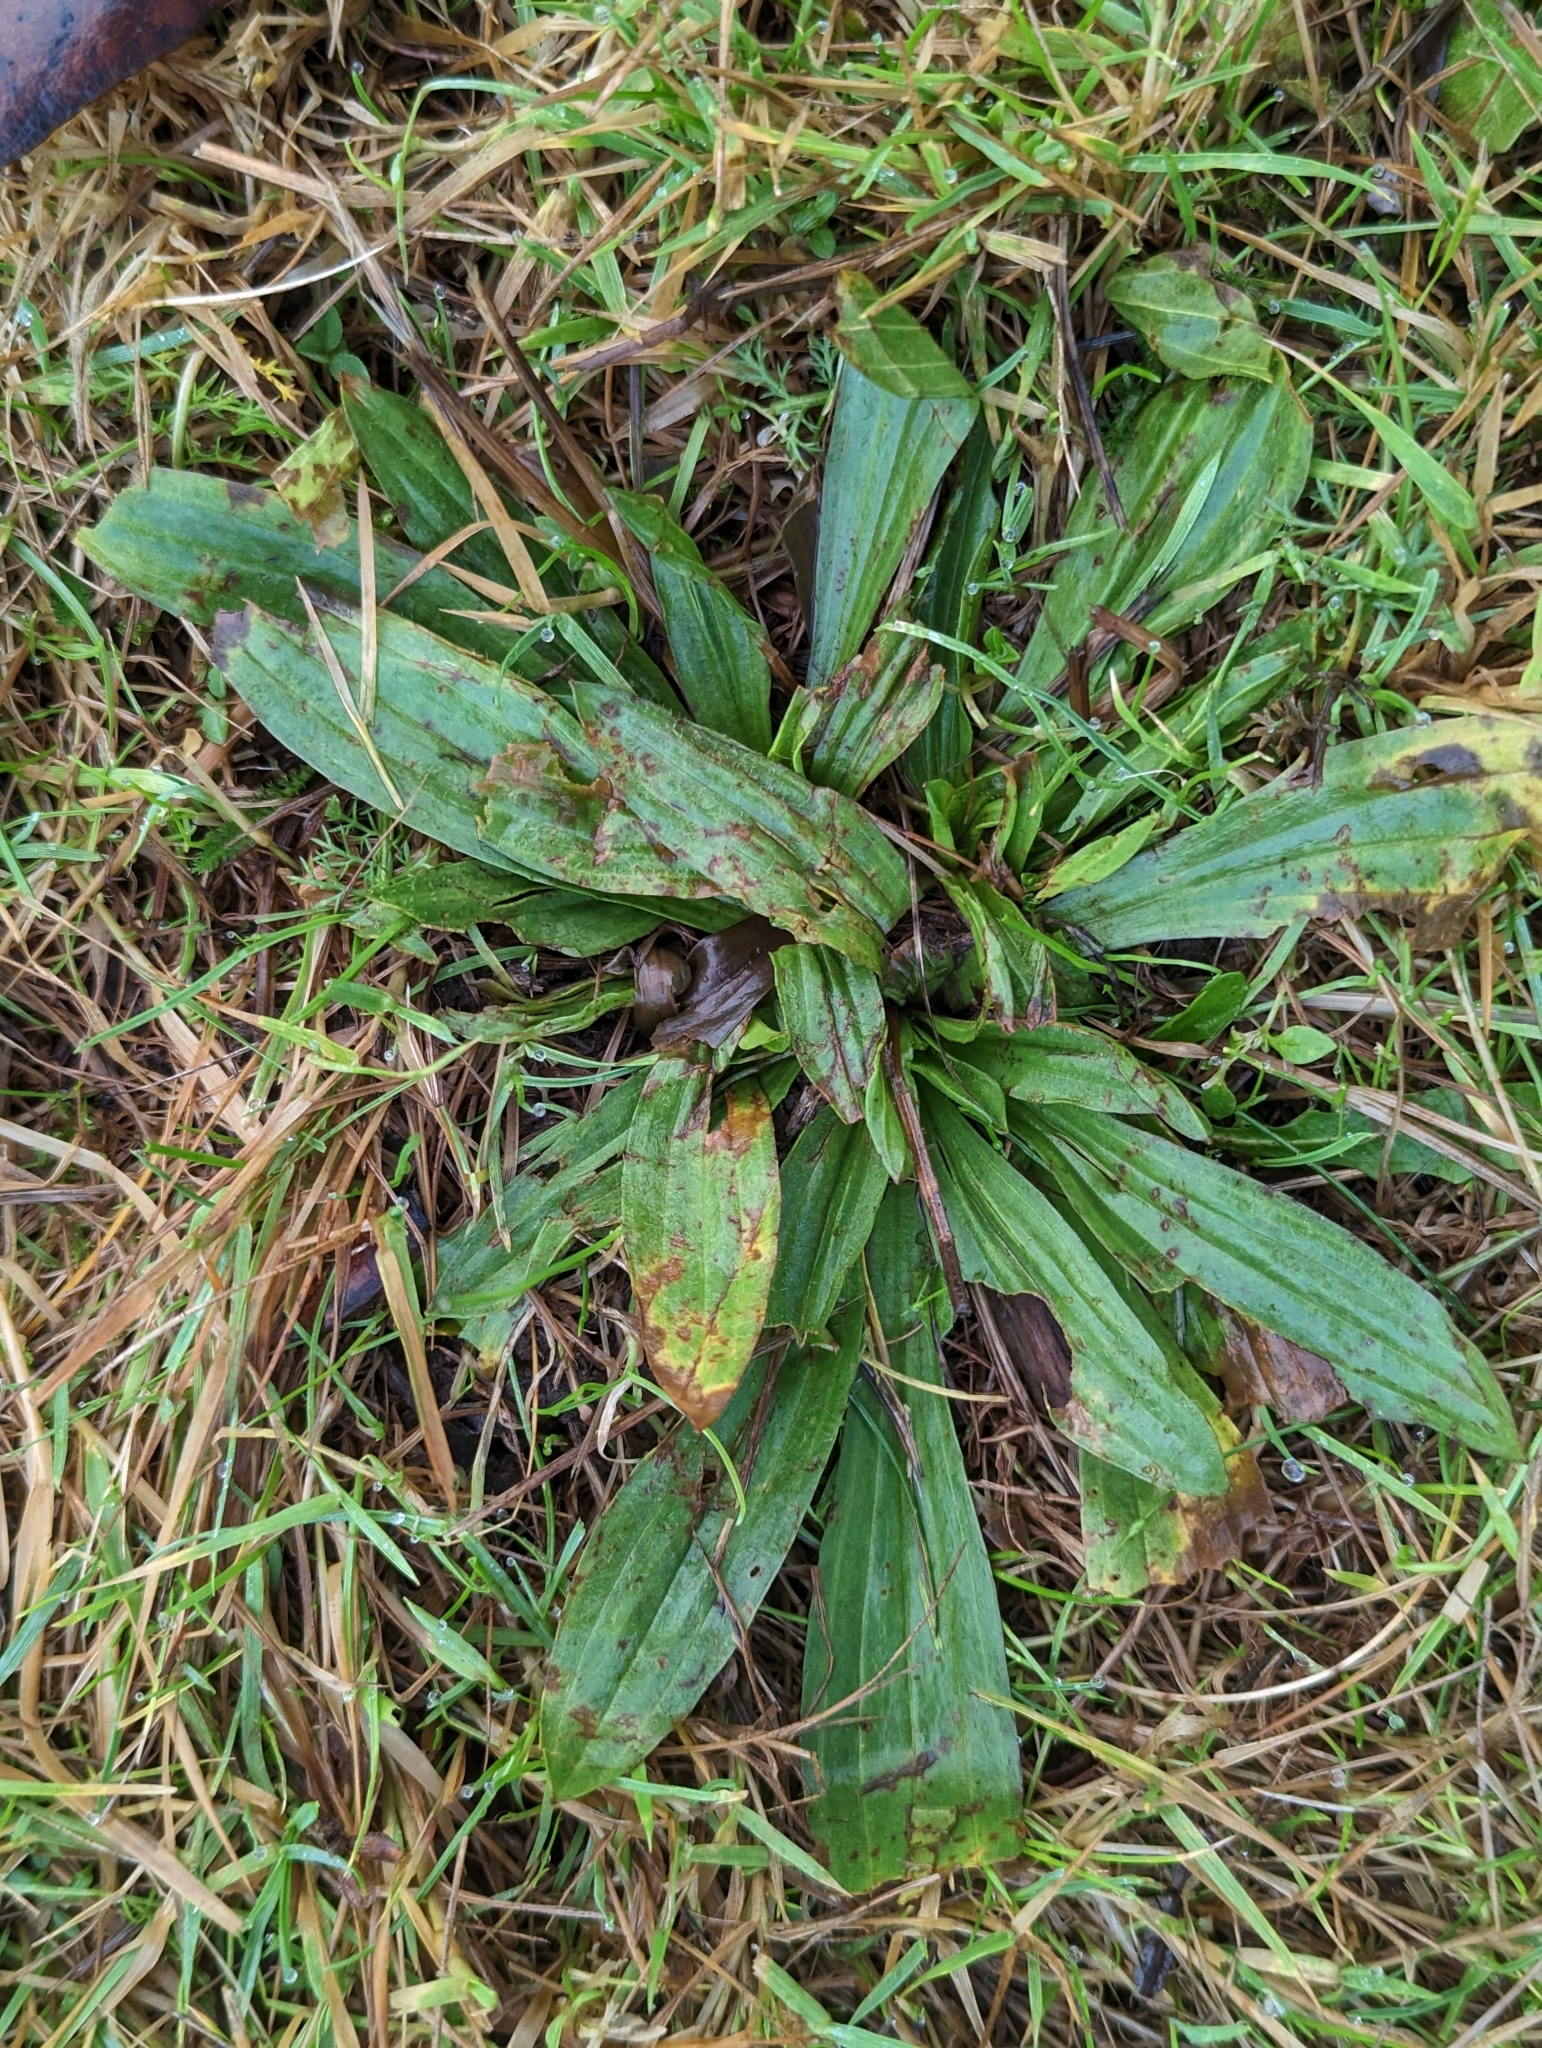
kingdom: Plantae
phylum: Tracheophyta
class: Magnoliopsida
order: Lamiales
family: Plantaginaceae
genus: Plantago
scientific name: Plantago lanceolata
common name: Ribwort plantain
